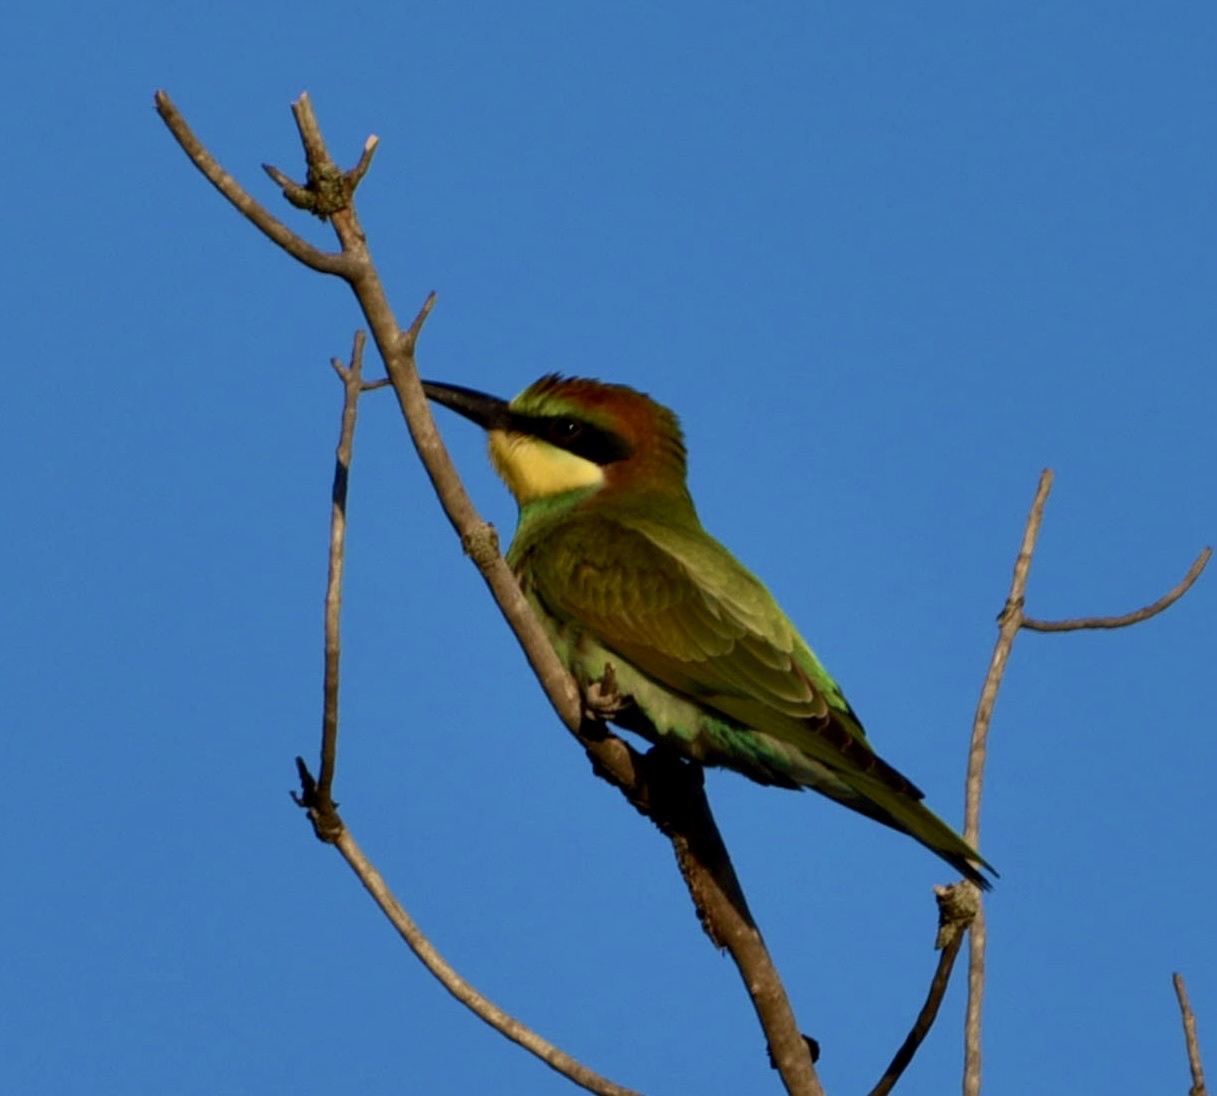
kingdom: Animalia
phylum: Chordata
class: Aves
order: Coraciiformes
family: Meropidae
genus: Merops
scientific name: Merops apiaster
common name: European bee-eater
